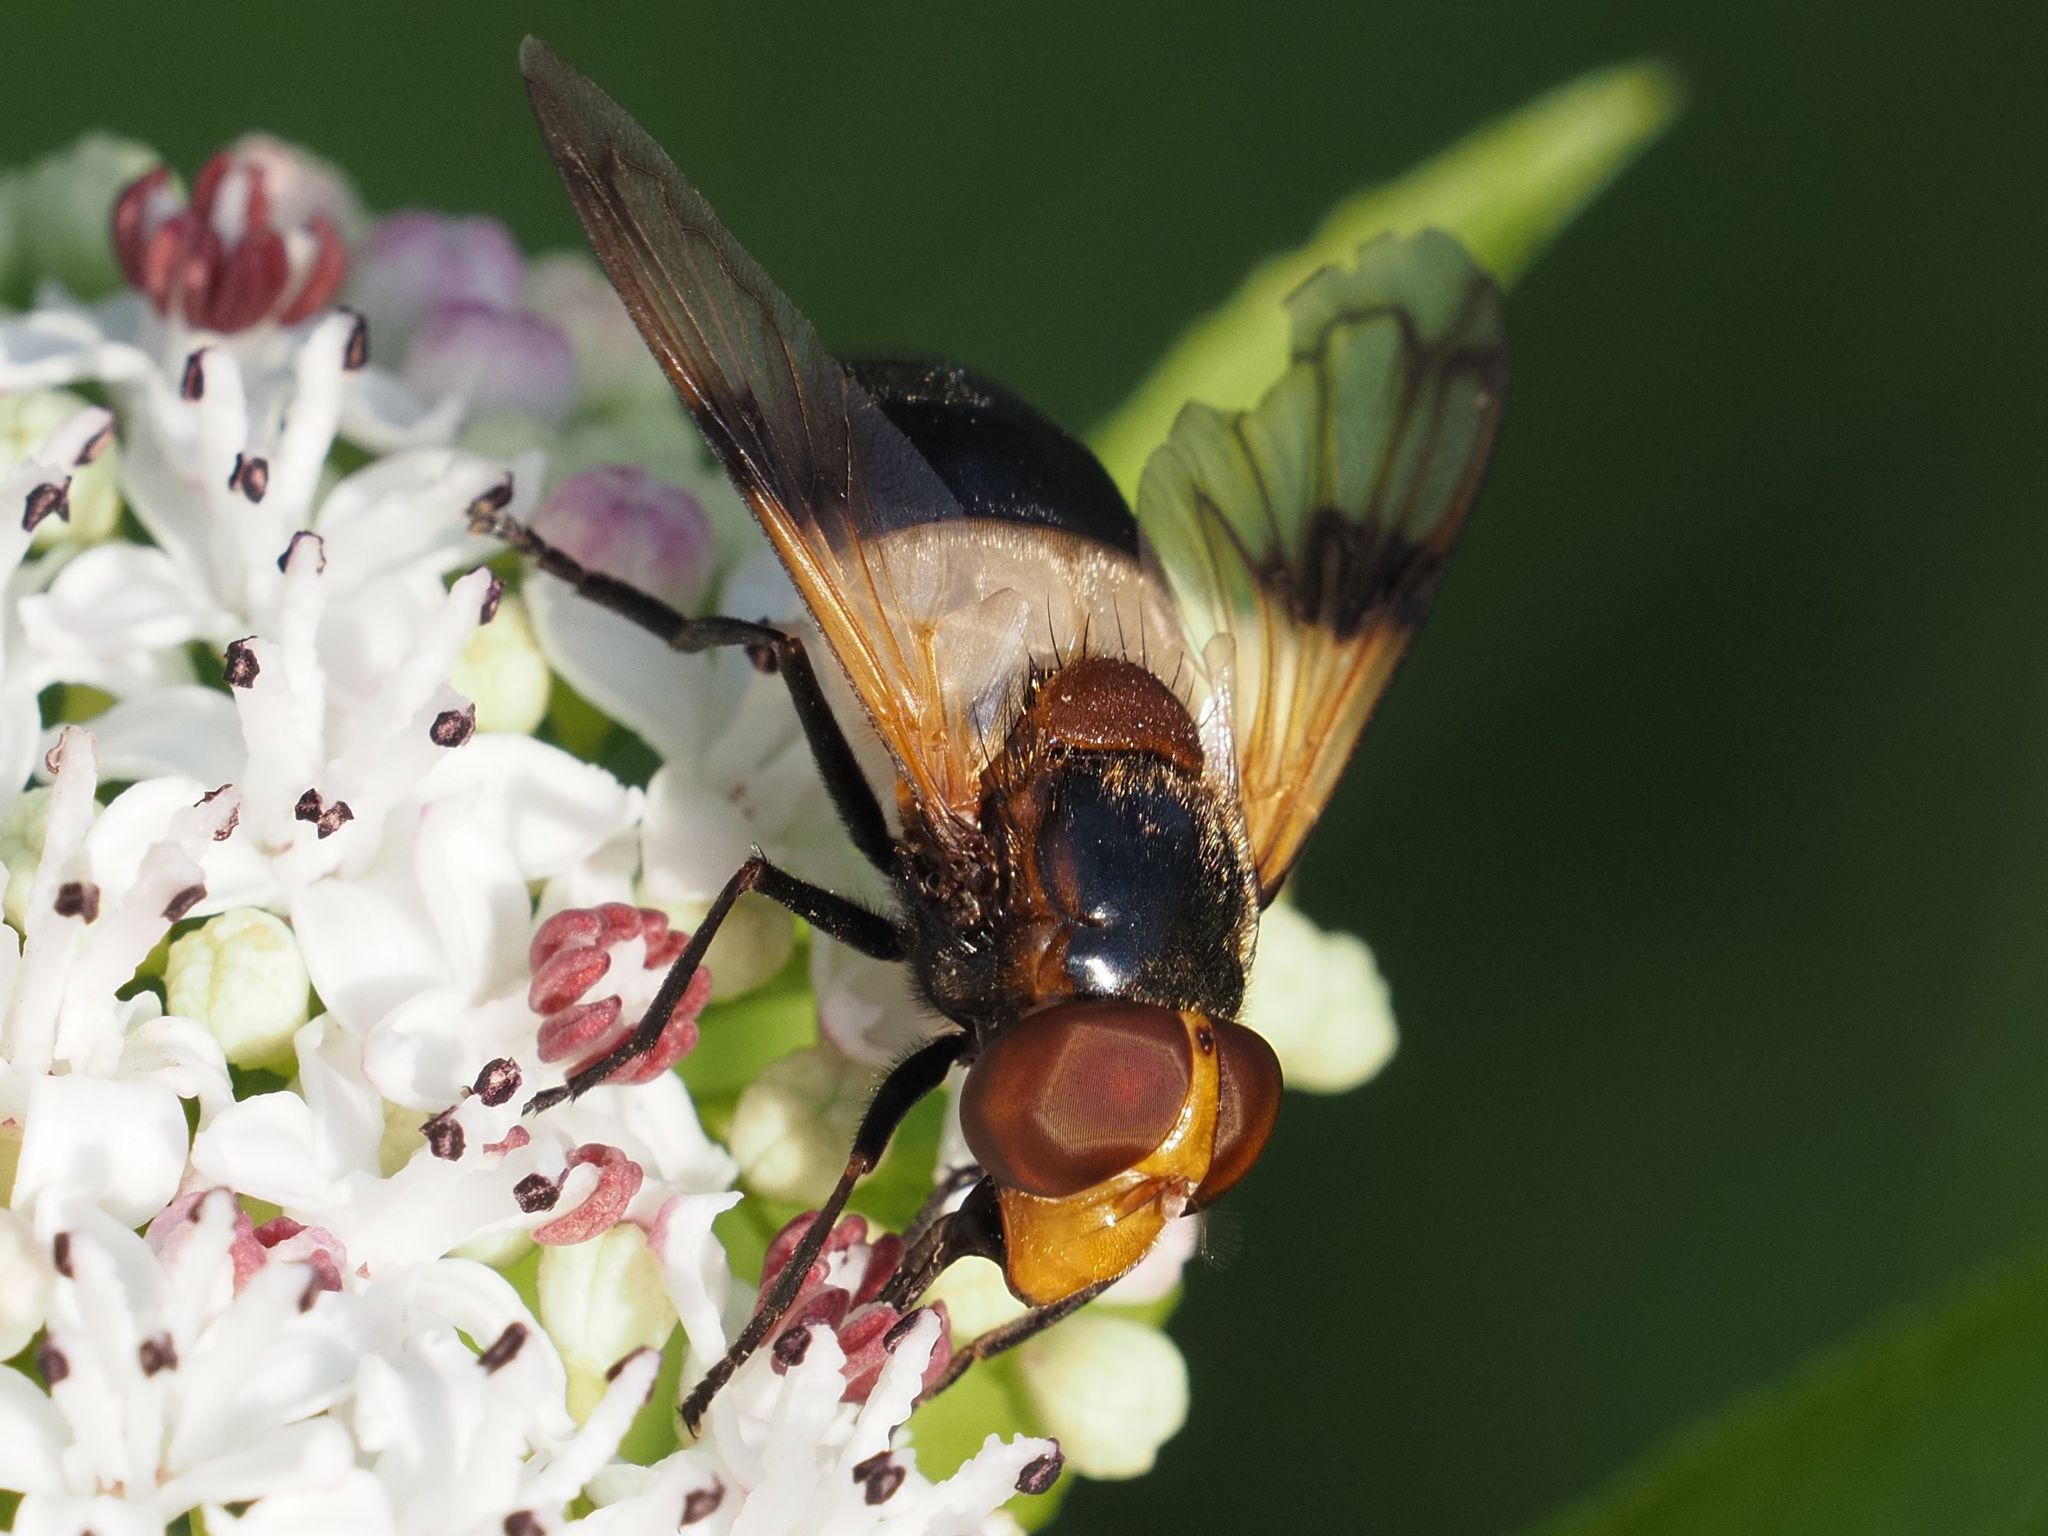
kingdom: Animalia
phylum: Arthropoda
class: Insecta
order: Diptera
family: Syrphidae
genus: Volucella
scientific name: Volucella pellucens
